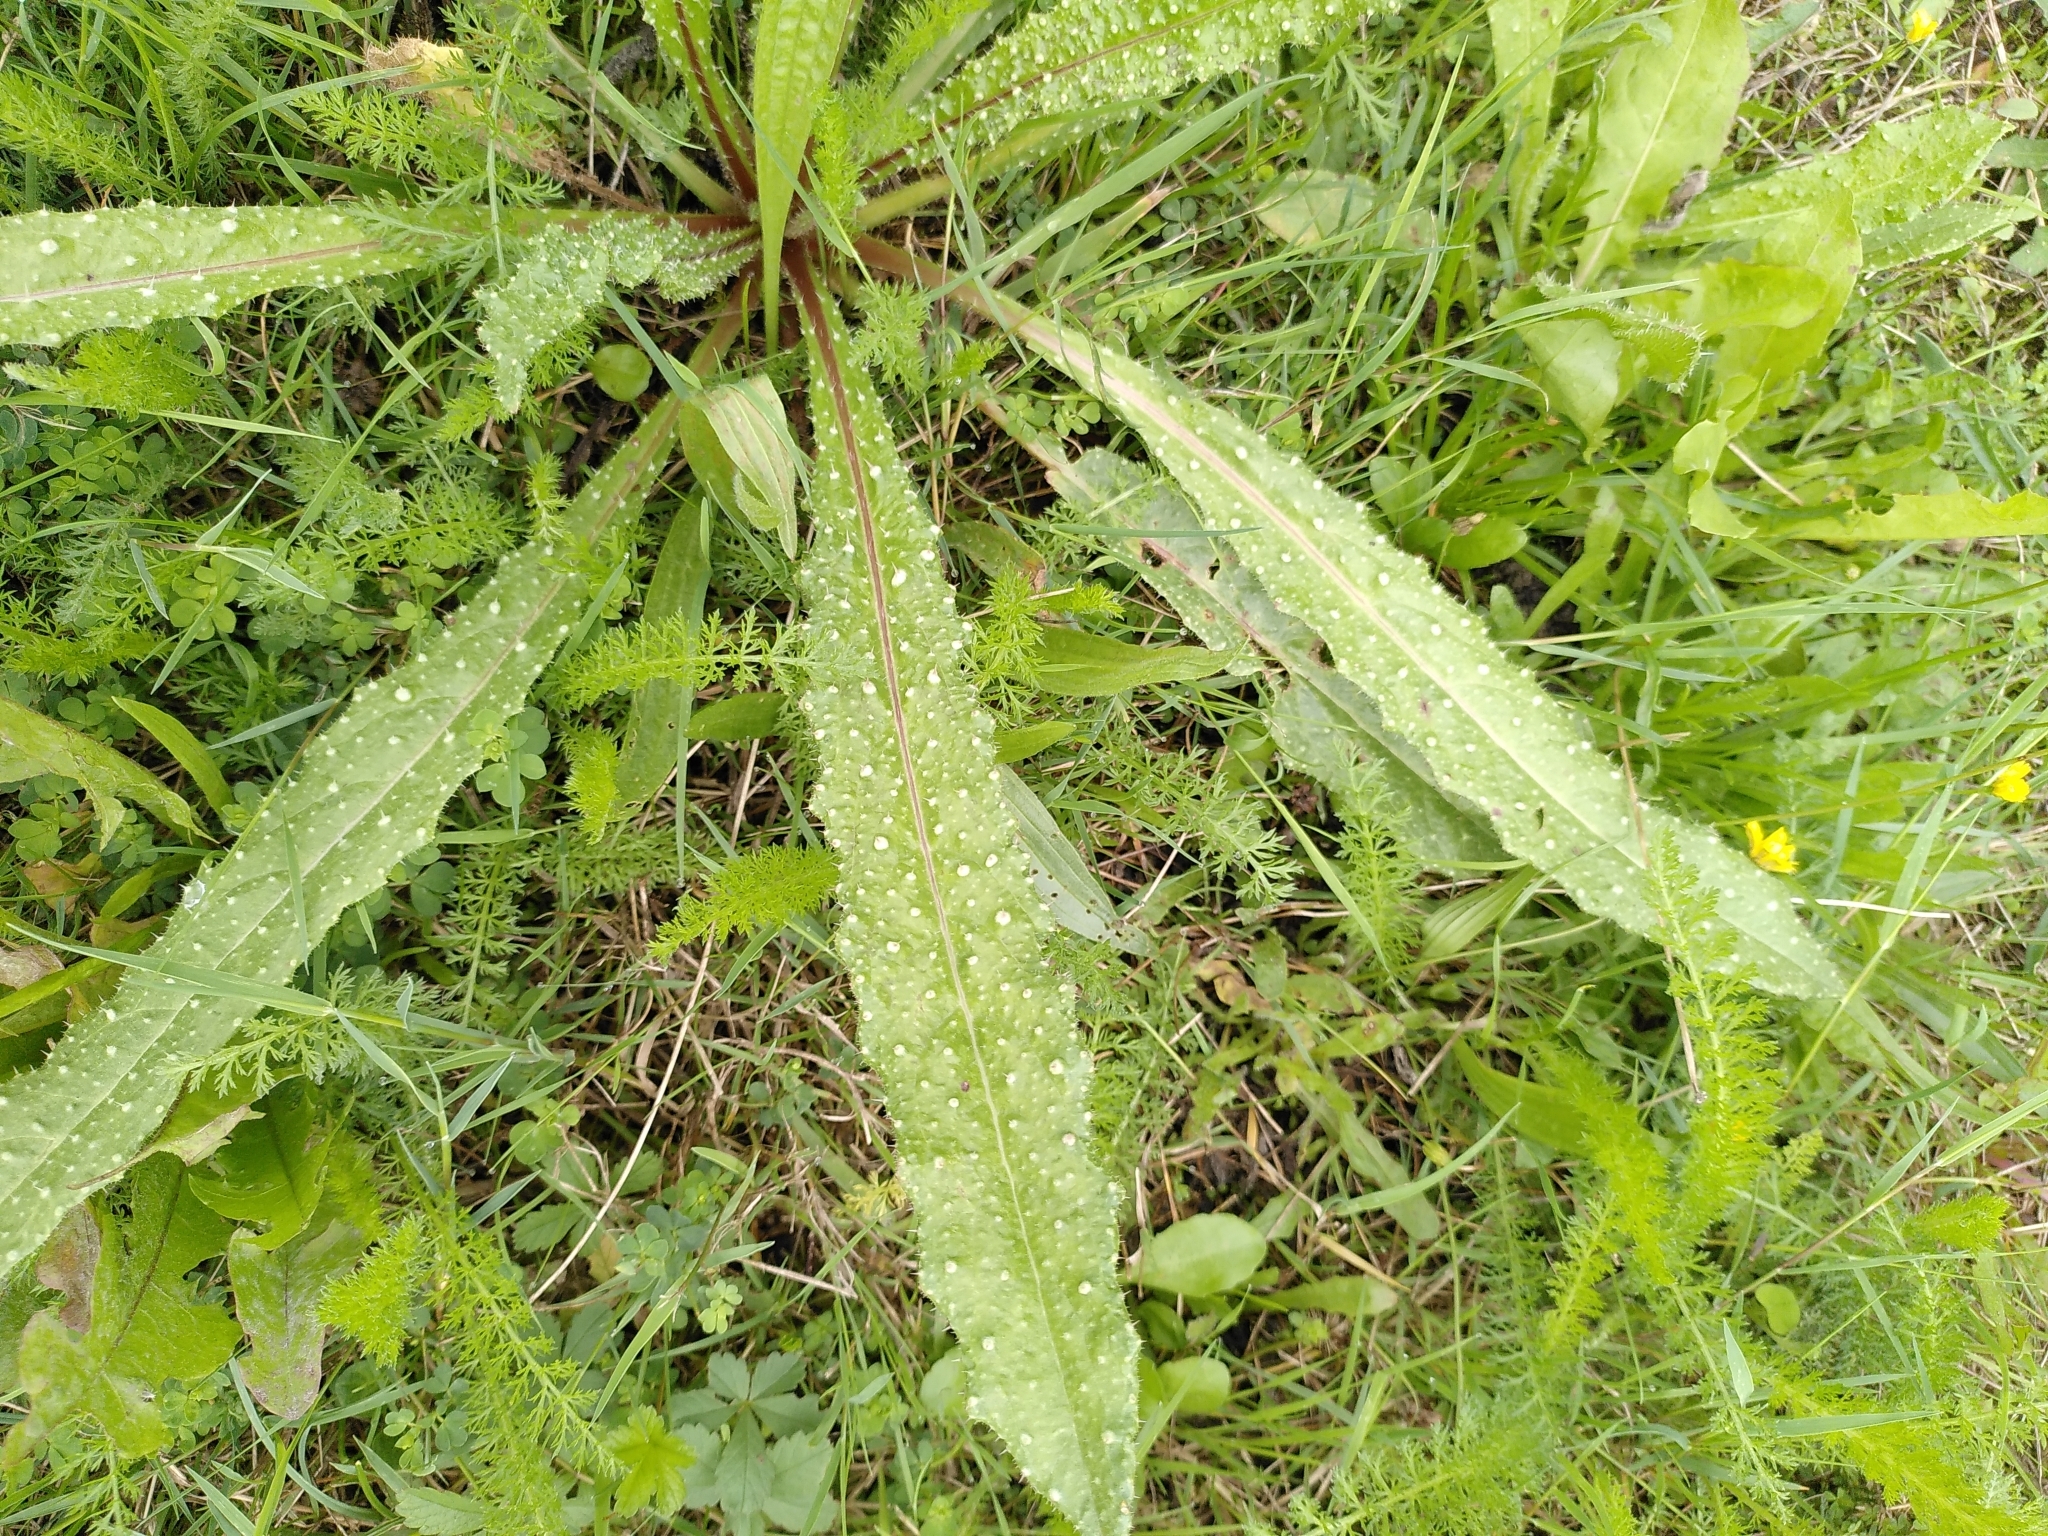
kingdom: Plantae
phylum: Tracheophyta
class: Magnoliopsida
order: Asterales
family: Asteraceae
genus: Helminthotheca
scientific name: Helminthotheca echioides
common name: Ox-tongue
